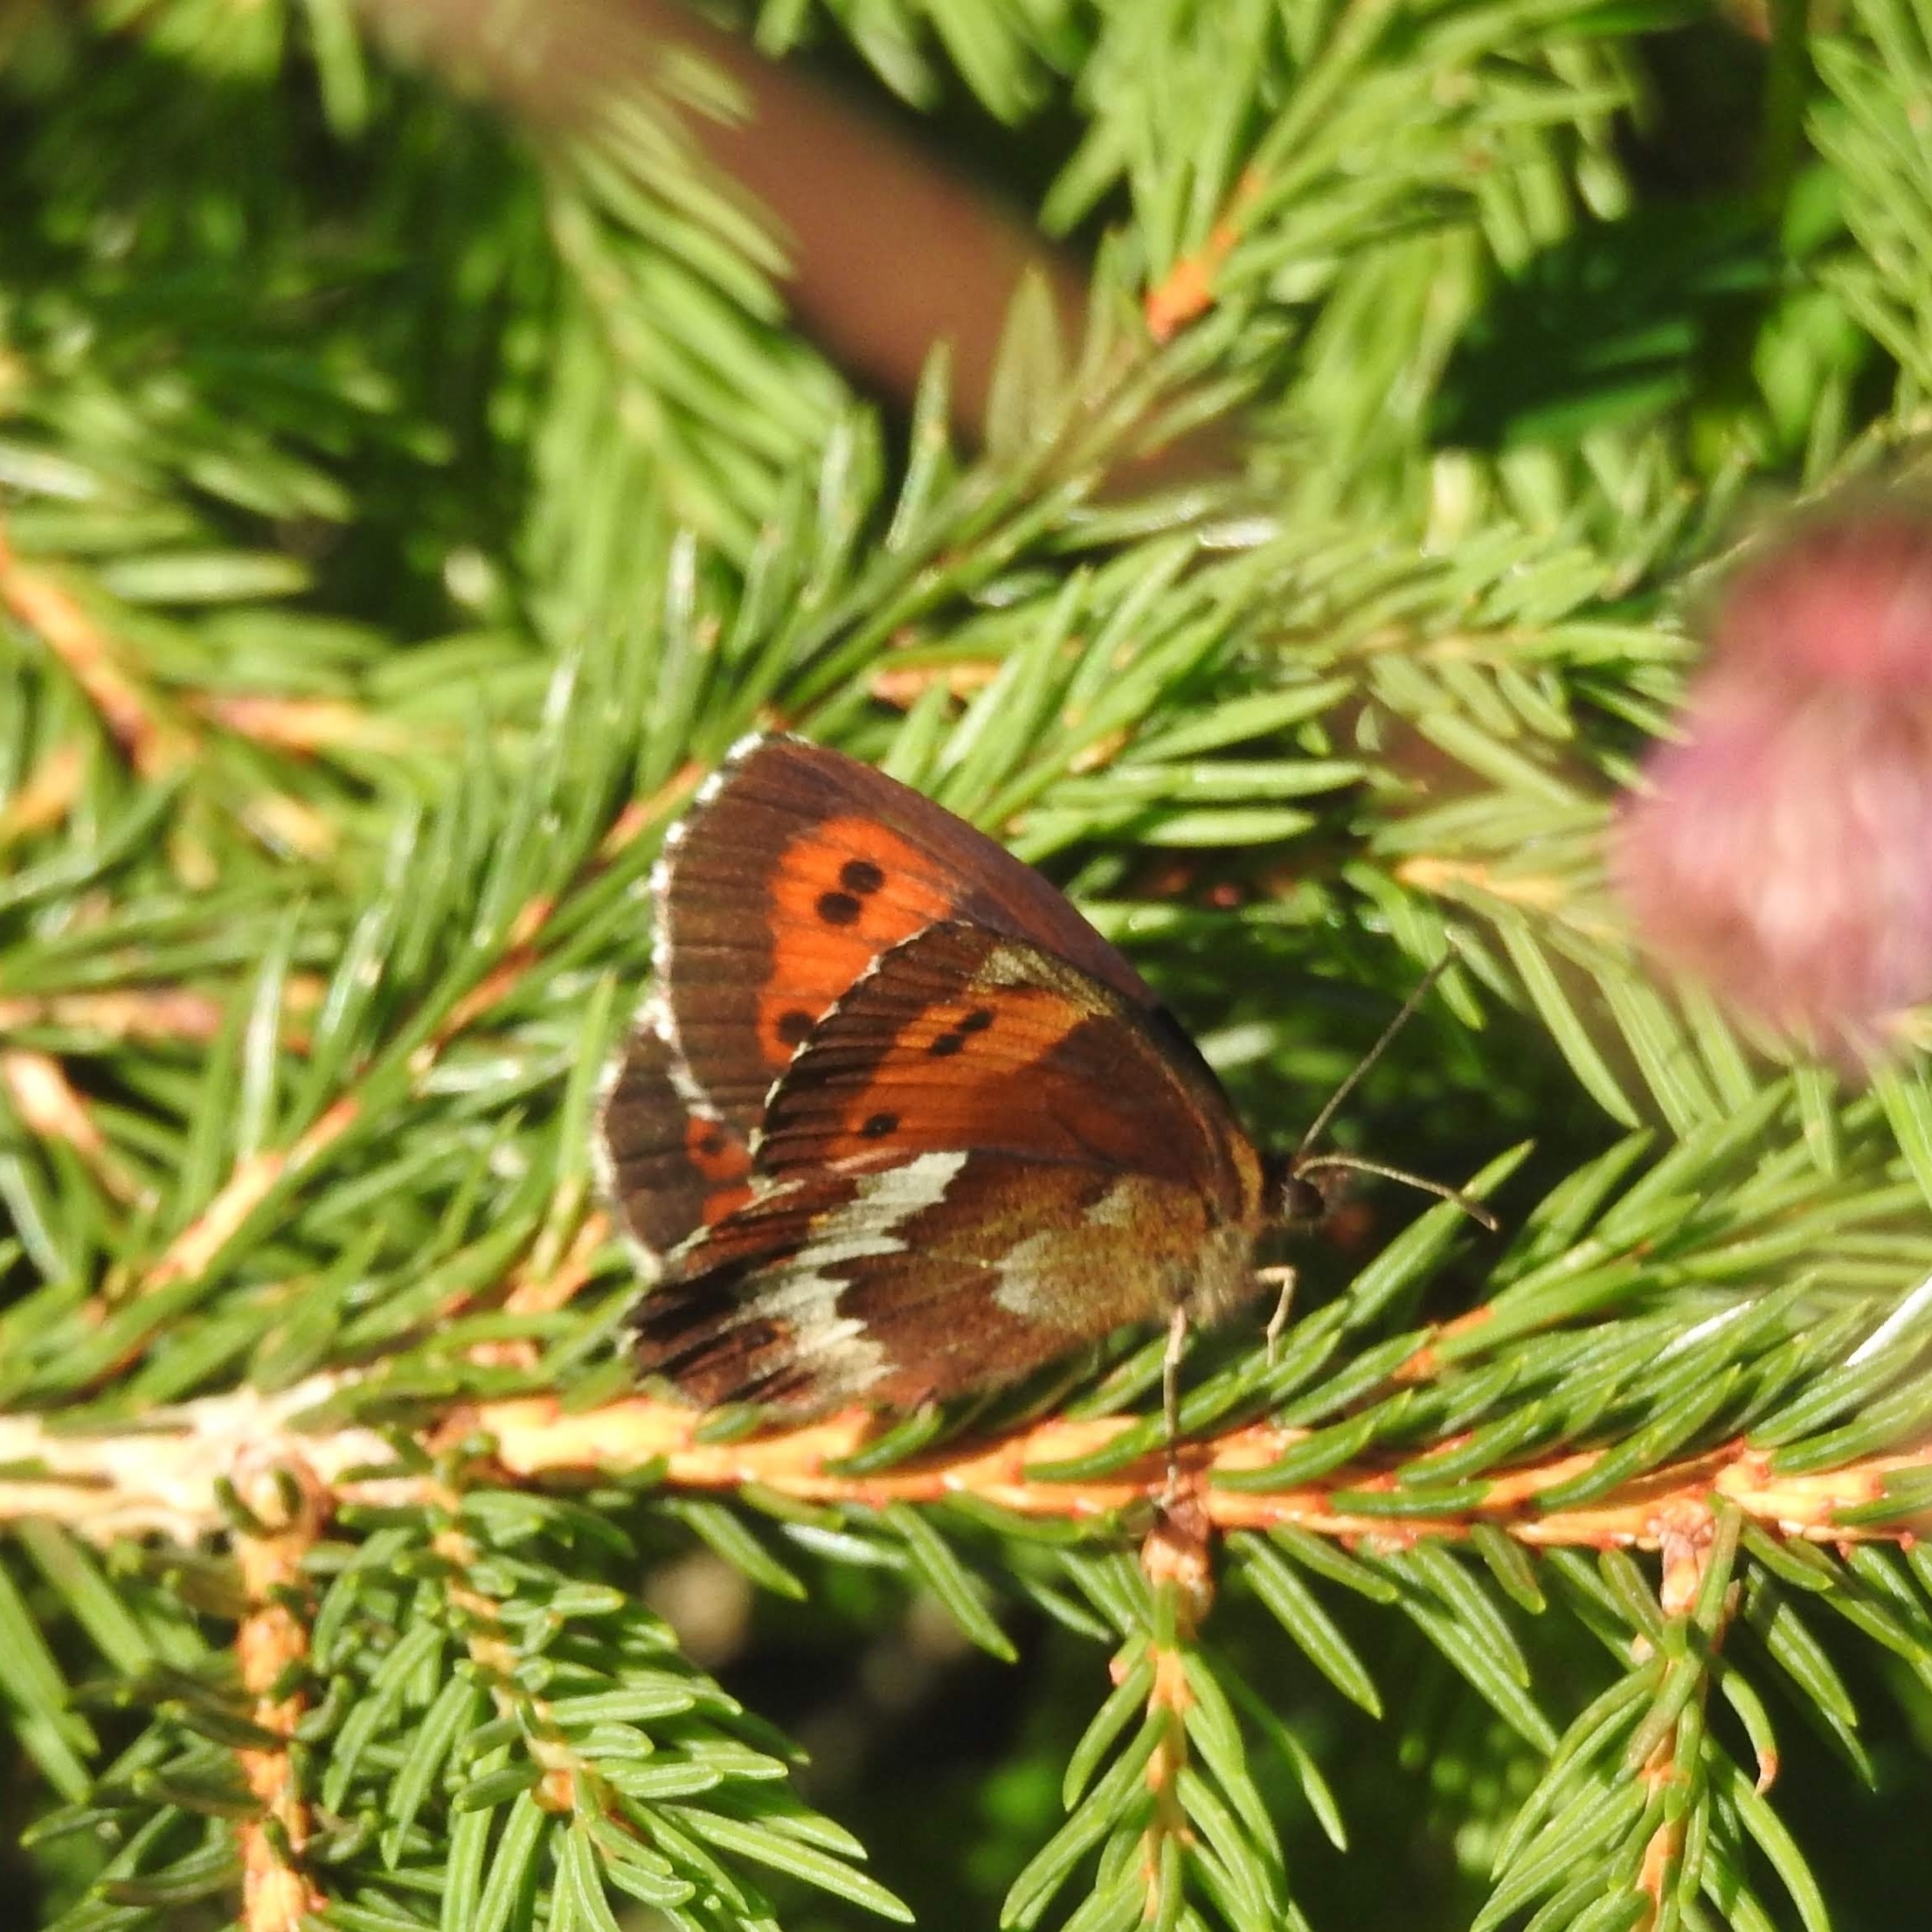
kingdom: Animalia
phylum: Arthropoda
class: Insecta
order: Lepidoptera
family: Nymphalidae
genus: Erebia
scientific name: Erebia euryale
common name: Large ringlet
